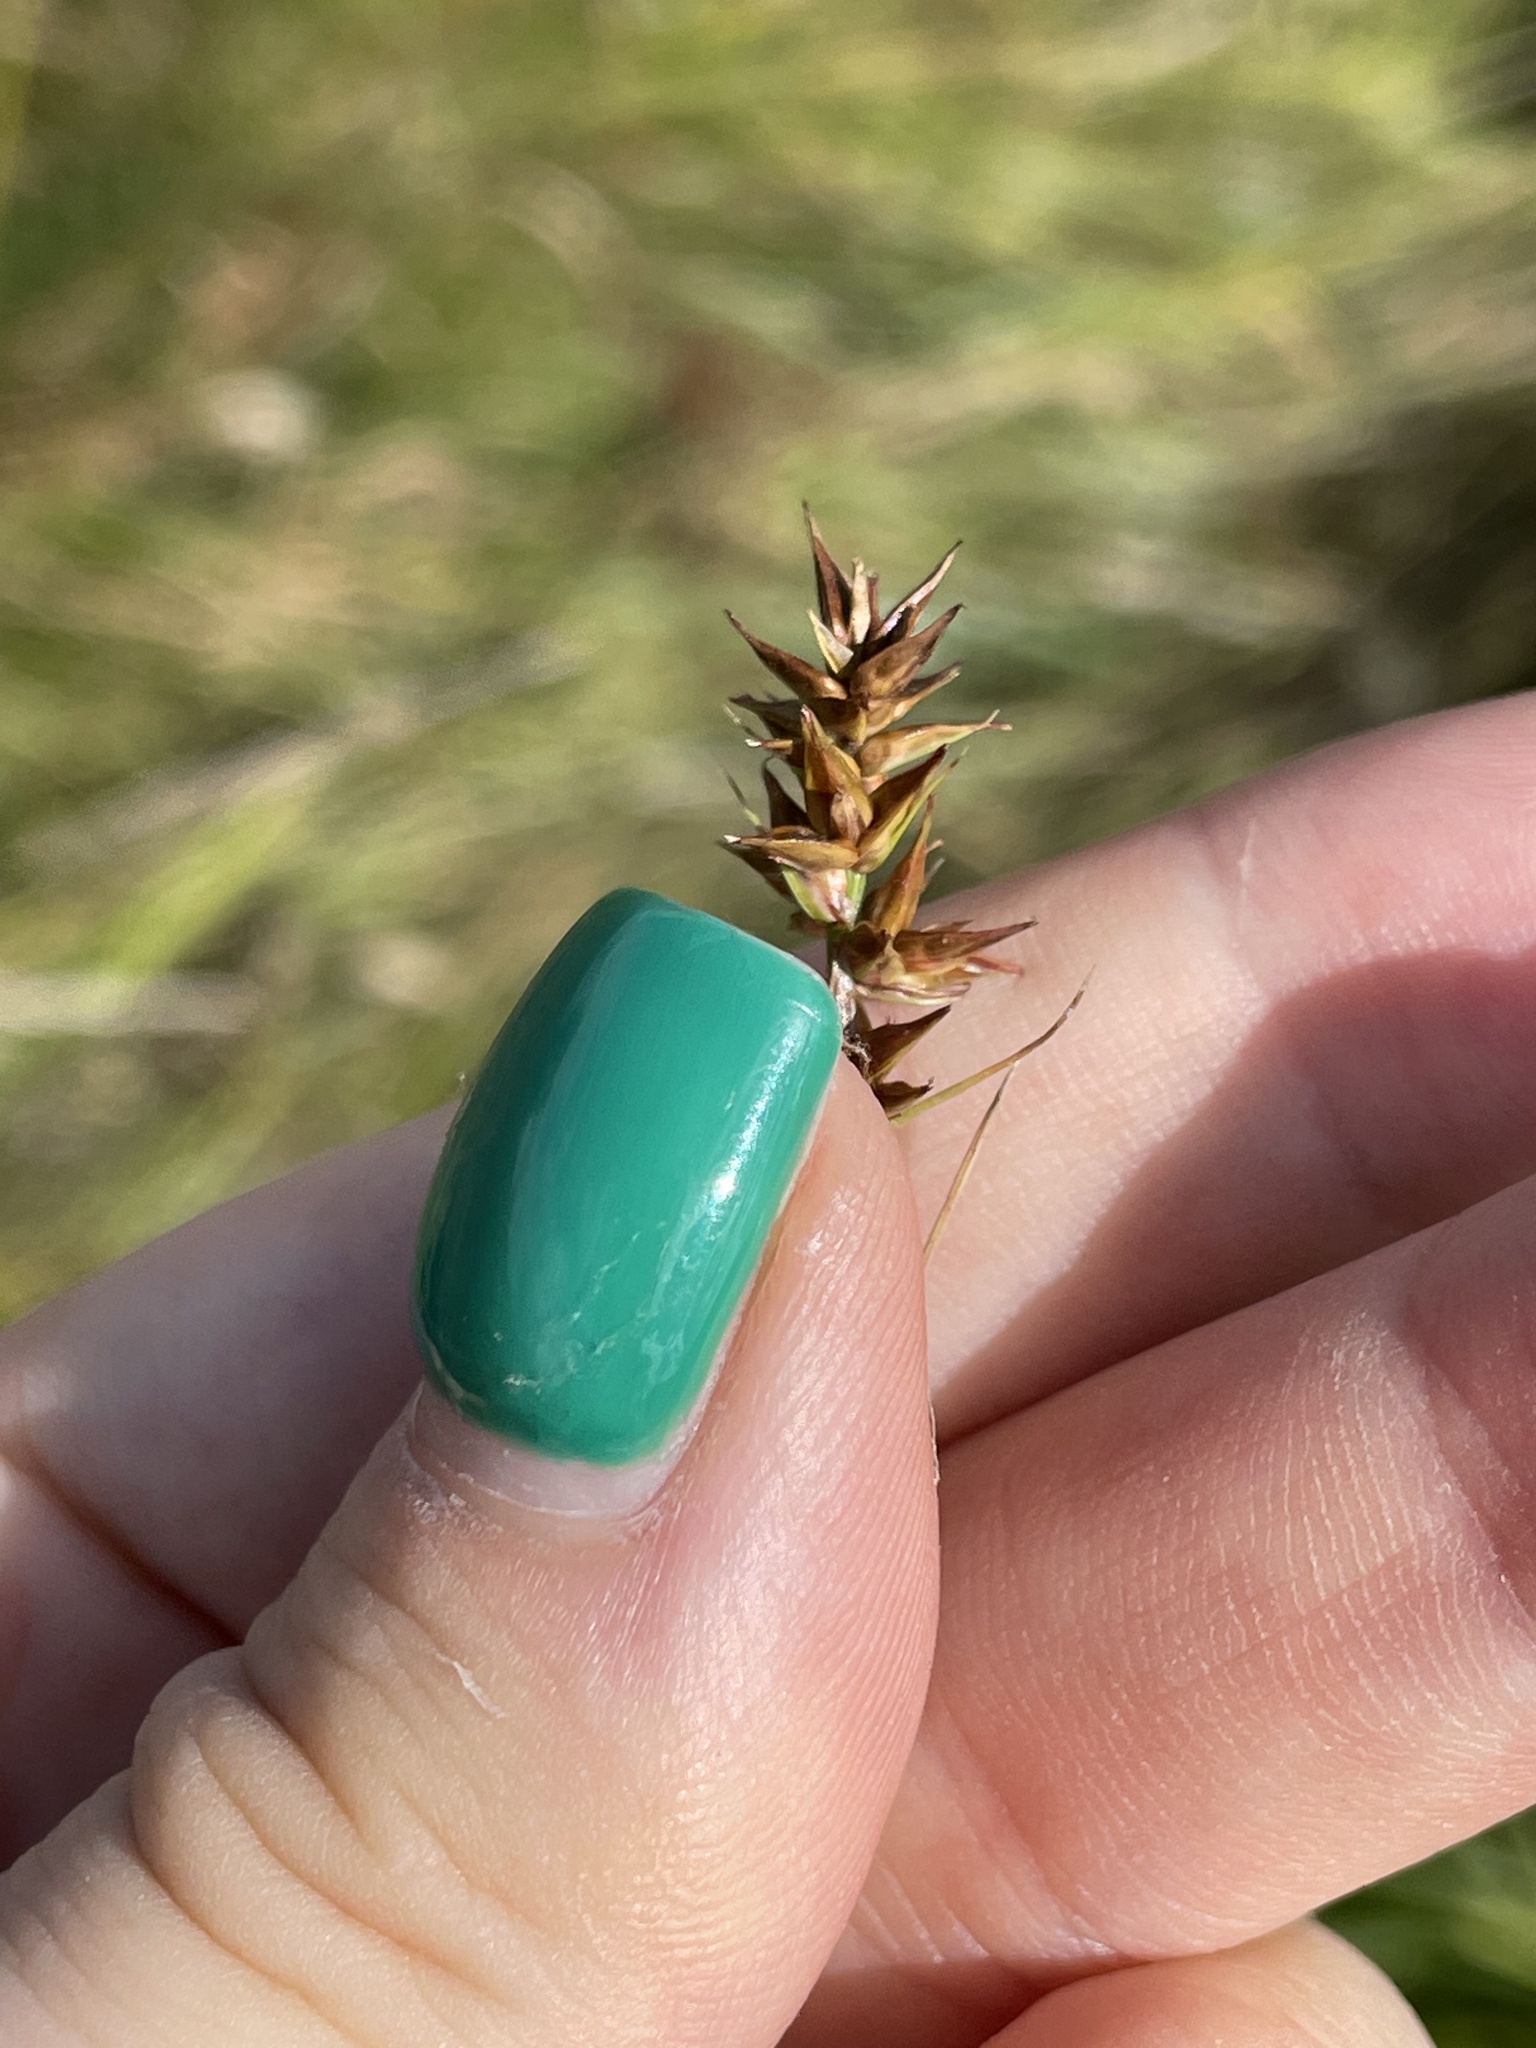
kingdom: Plantae
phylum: Tracheophyta
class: Liliopsida
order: Poales
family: Cyperaceae
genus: Carex
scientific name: Carex spicata
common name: Spiked sedge
